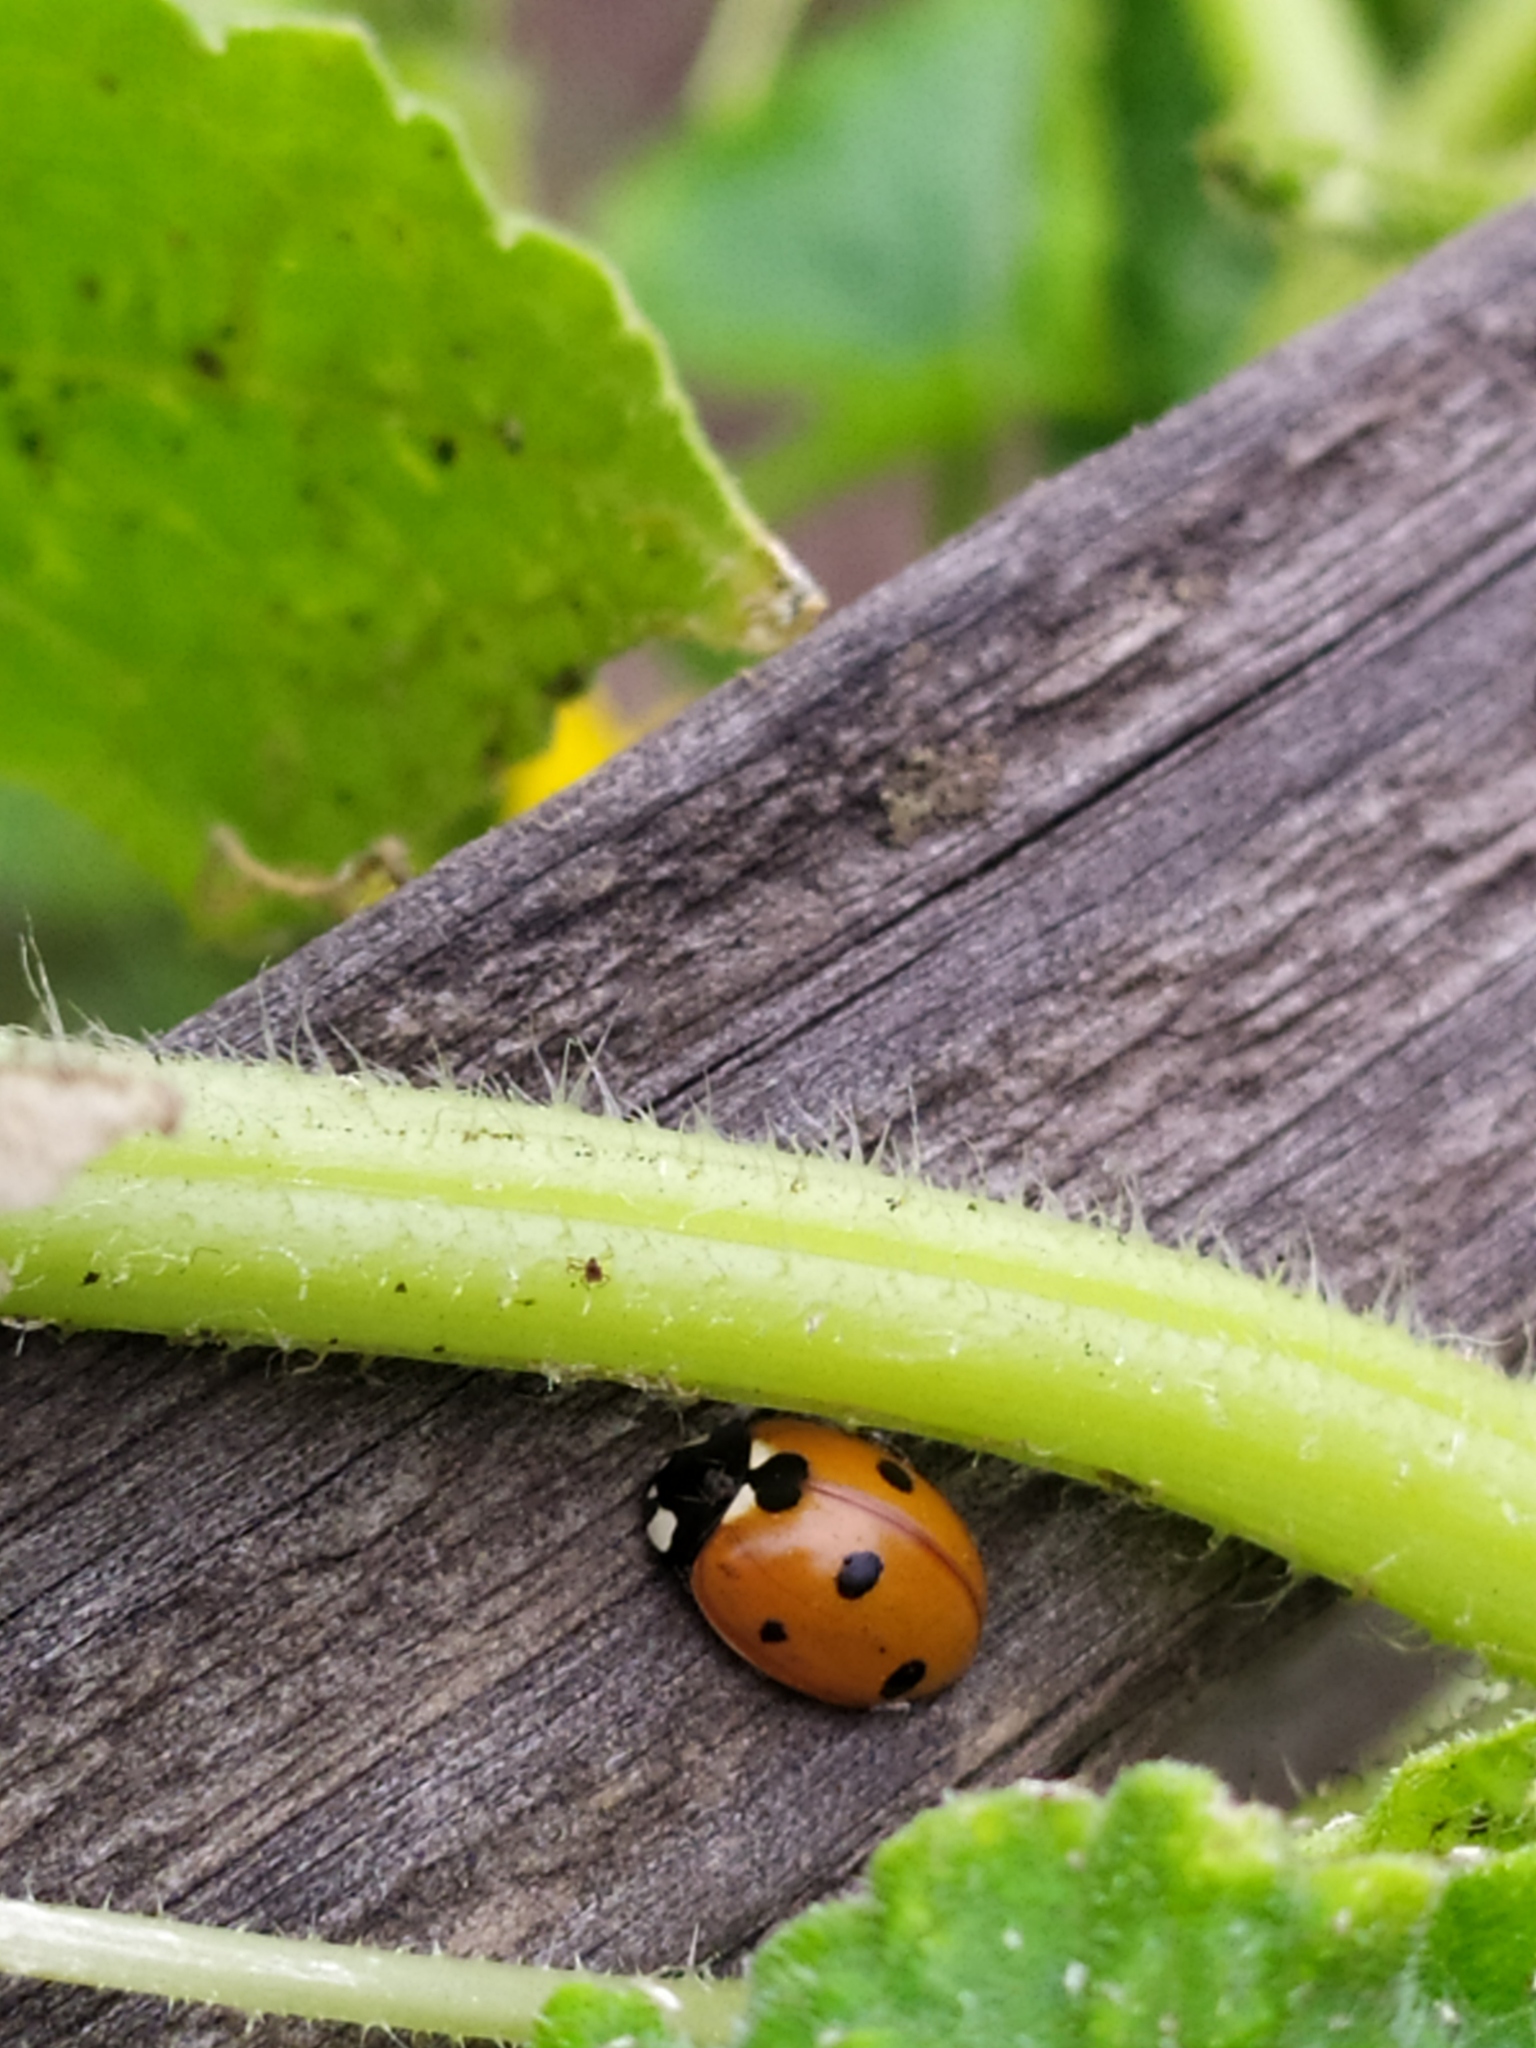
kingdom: Animalia
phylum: Arthropoda
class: Insecta
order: Coleoptera
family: Coccinellidae
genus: Coccinella
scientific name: Coccinella septempunctata
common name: Sevenspotted lady beetle
